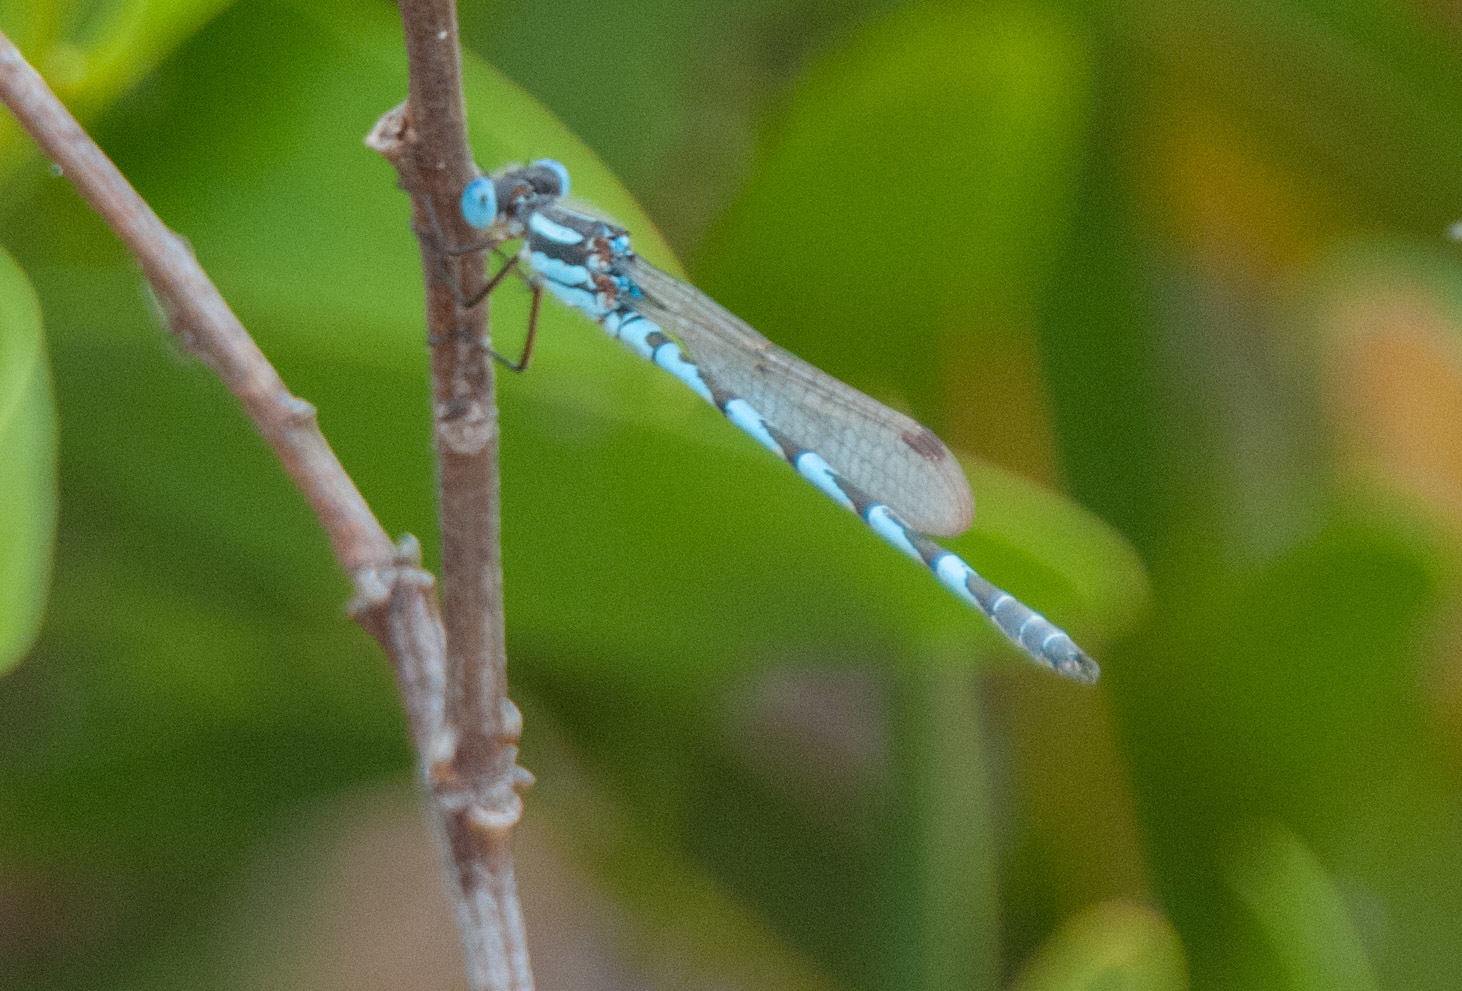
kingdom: Animalia
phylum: Arthropoda
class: Insecta
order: Odonata
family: Lestidae
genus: Austrolestes
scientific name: Austrolestes annulosus
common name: Blue ringtail
